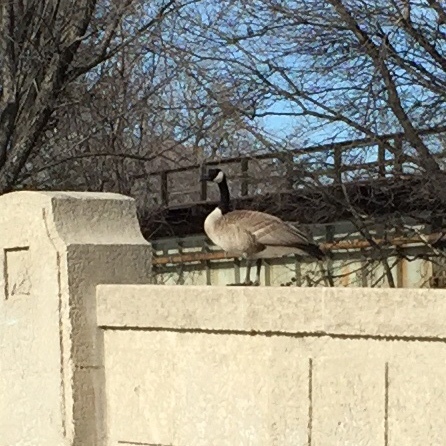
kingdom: Animalia
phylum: Chordata
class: Aves
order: Anseriformes
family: Anatidae
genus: Branta
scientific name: Branta canadensis
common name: Canada goose
